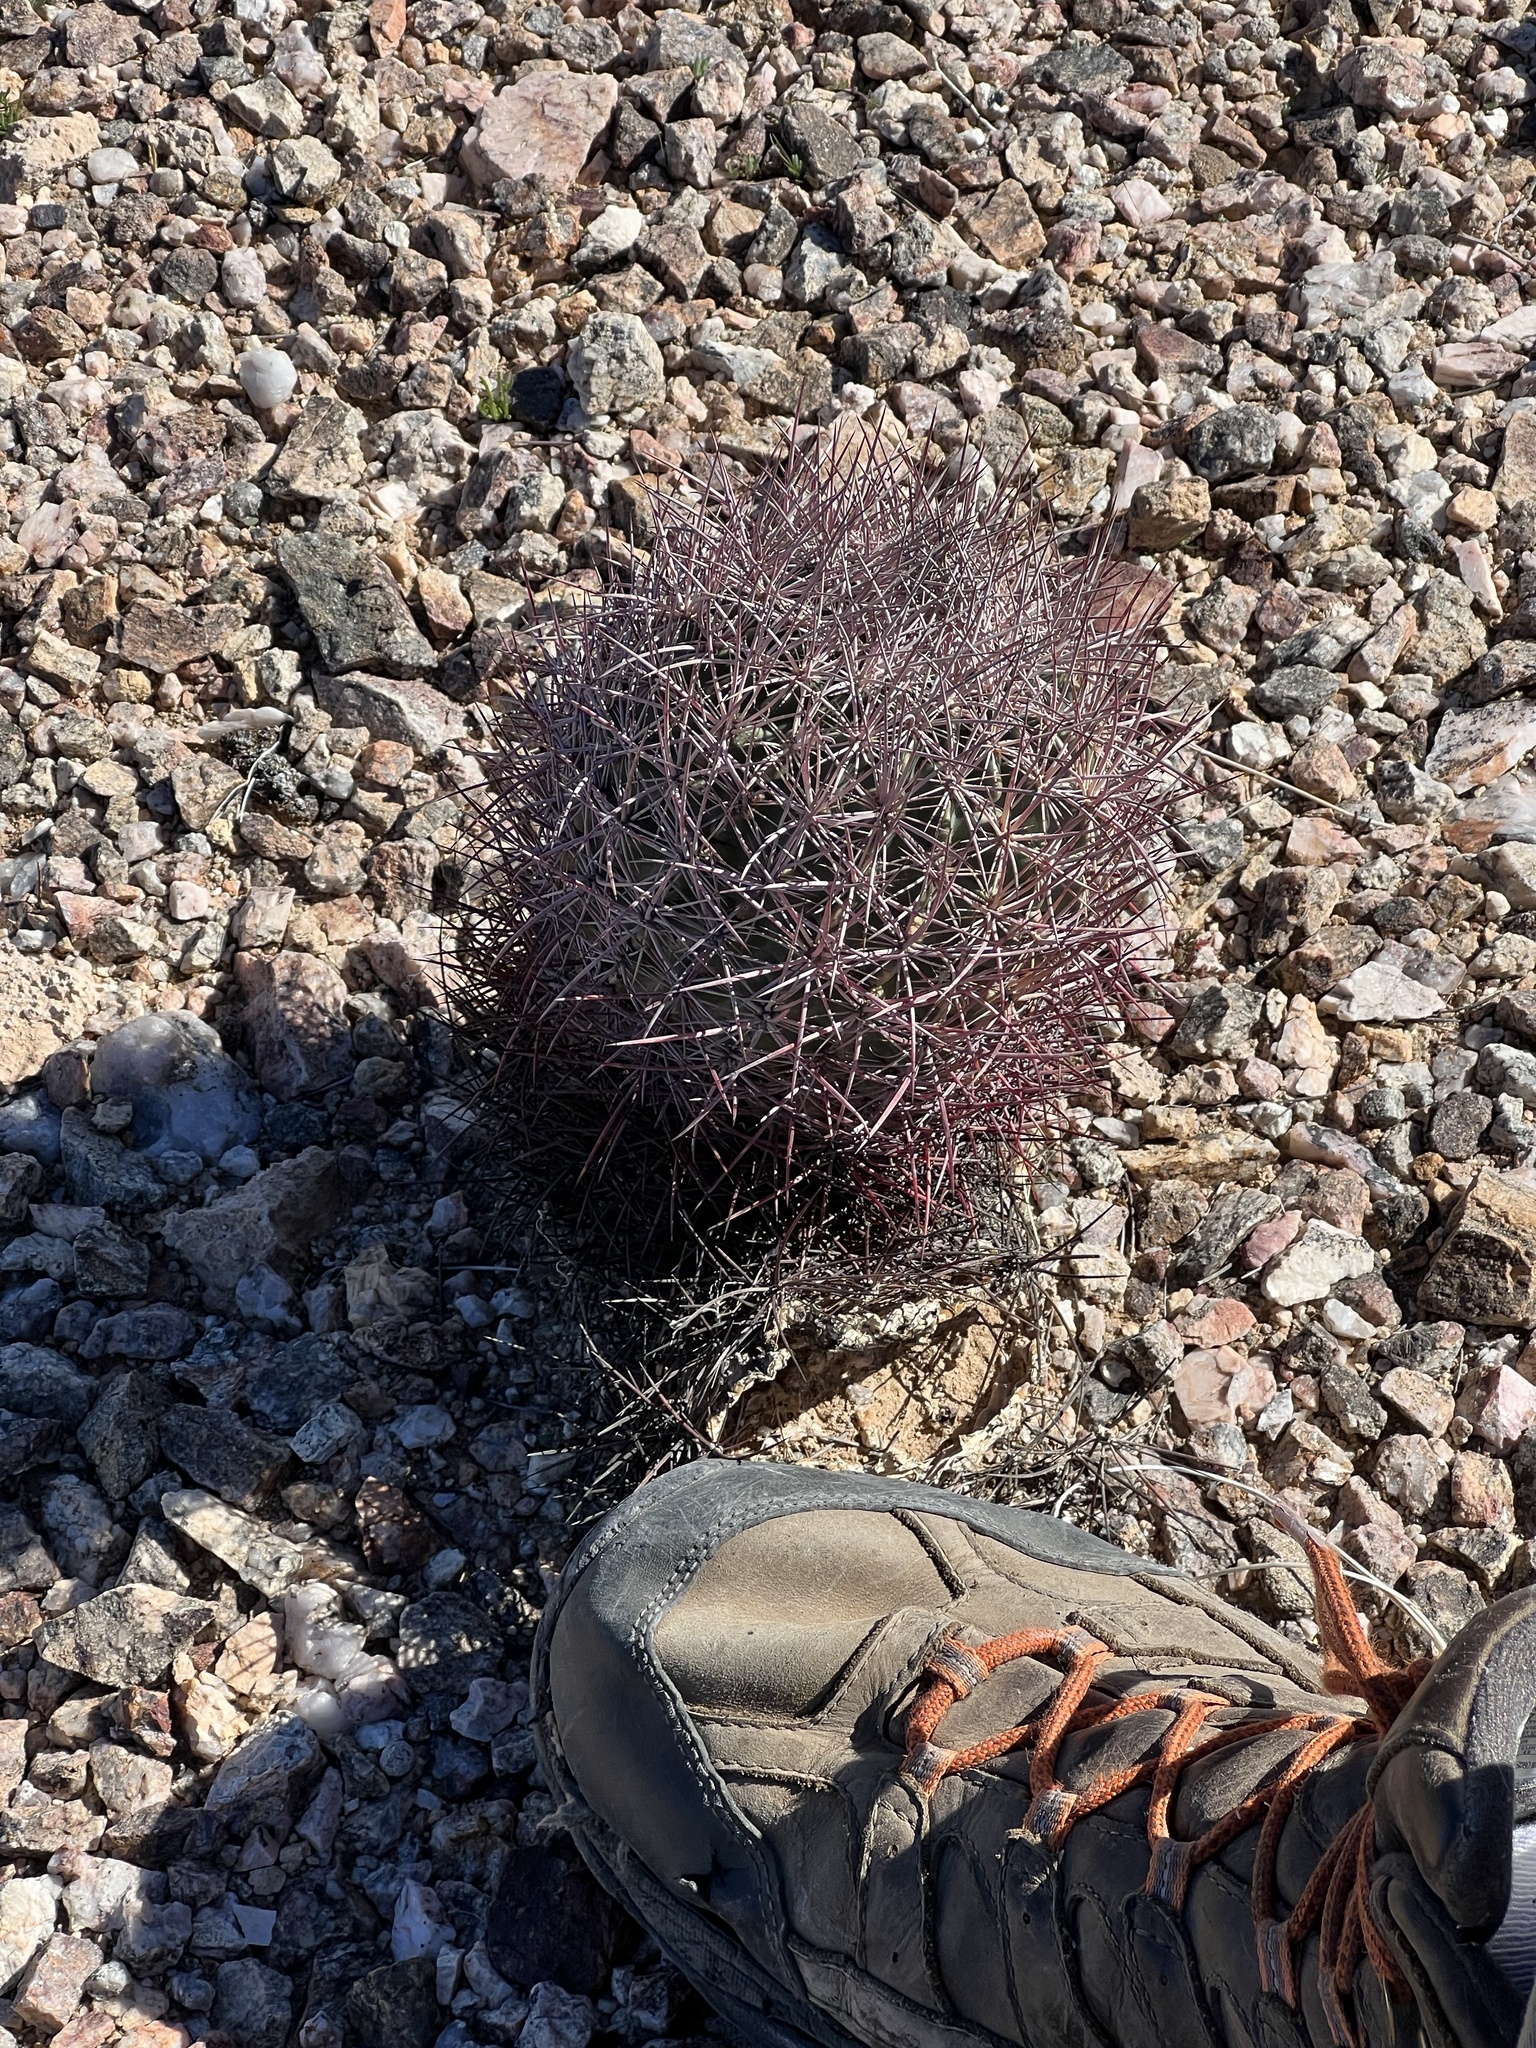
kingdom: Plantae
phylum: Tracheophyta
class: Magnoliopsida
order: Caryophyllales
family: Cactaceae
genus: Sclerocactus
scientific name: Sclerocactus johnsonii
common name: Eight-spine fishhook cactus
